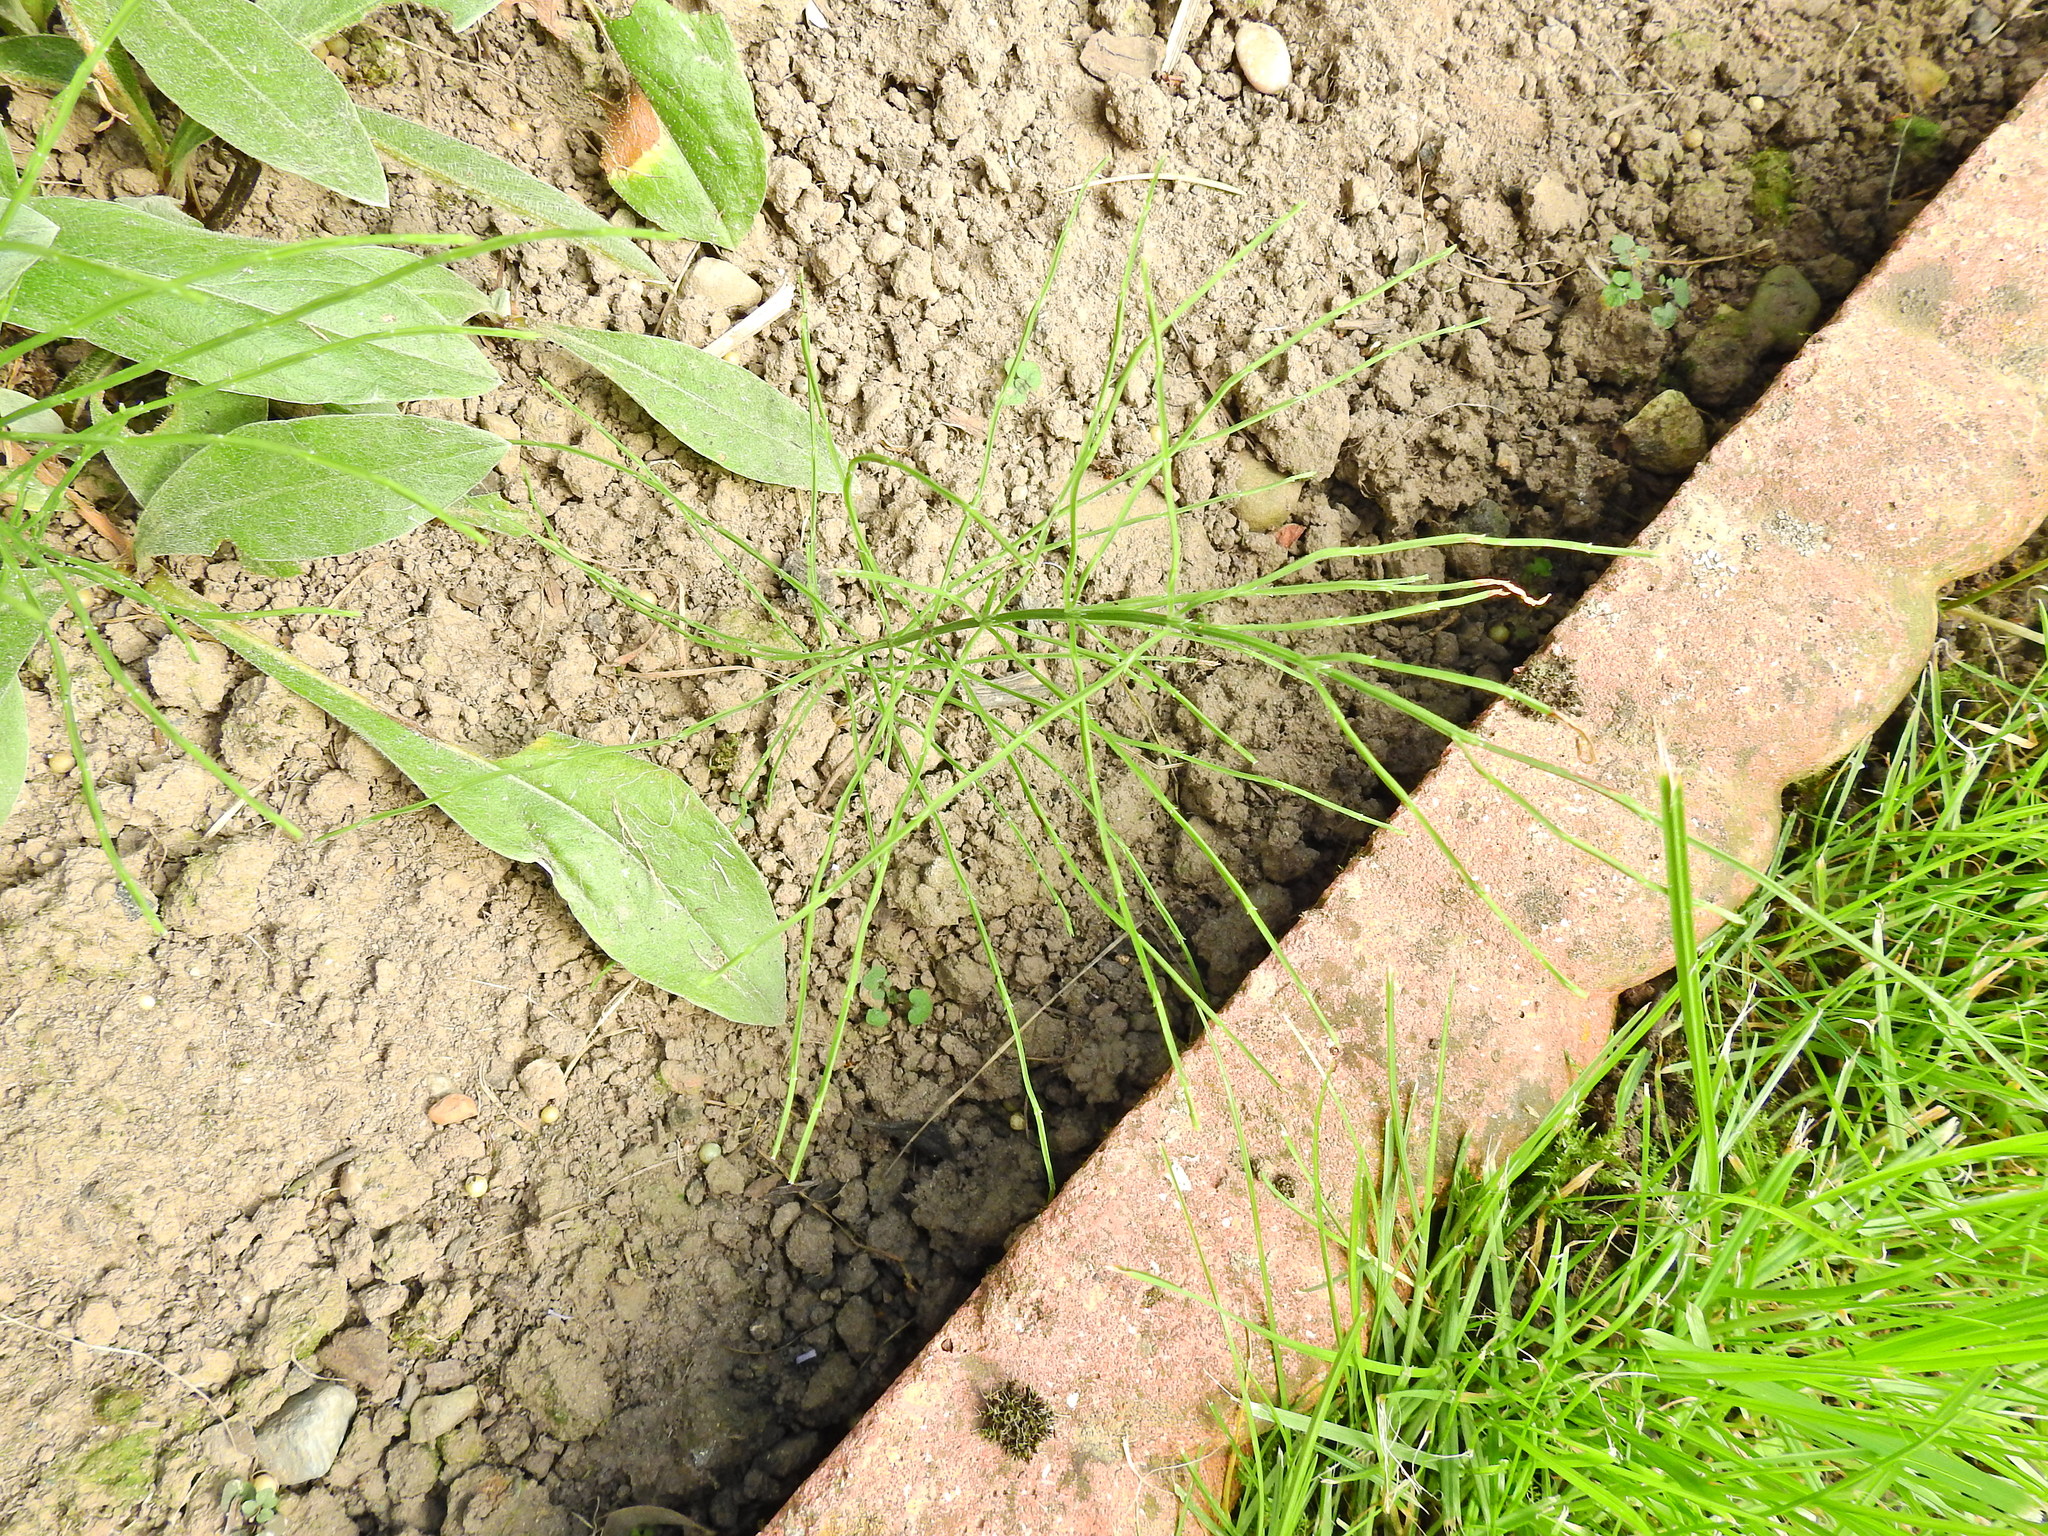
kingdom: Plantae
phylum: Tracheophyta
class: Polypodiopsida
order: Equisetales
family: Equisetaceae
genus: Equisetum
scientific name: Equisetum arvense
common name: Field horsetail
